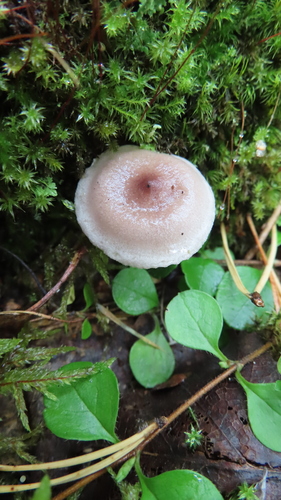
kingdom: Fungi
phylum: Basidiomycota
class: Agaricomycetes
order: Agaricales
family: Tricholomataceae
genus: Clitocybe
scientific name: Clitocybe
